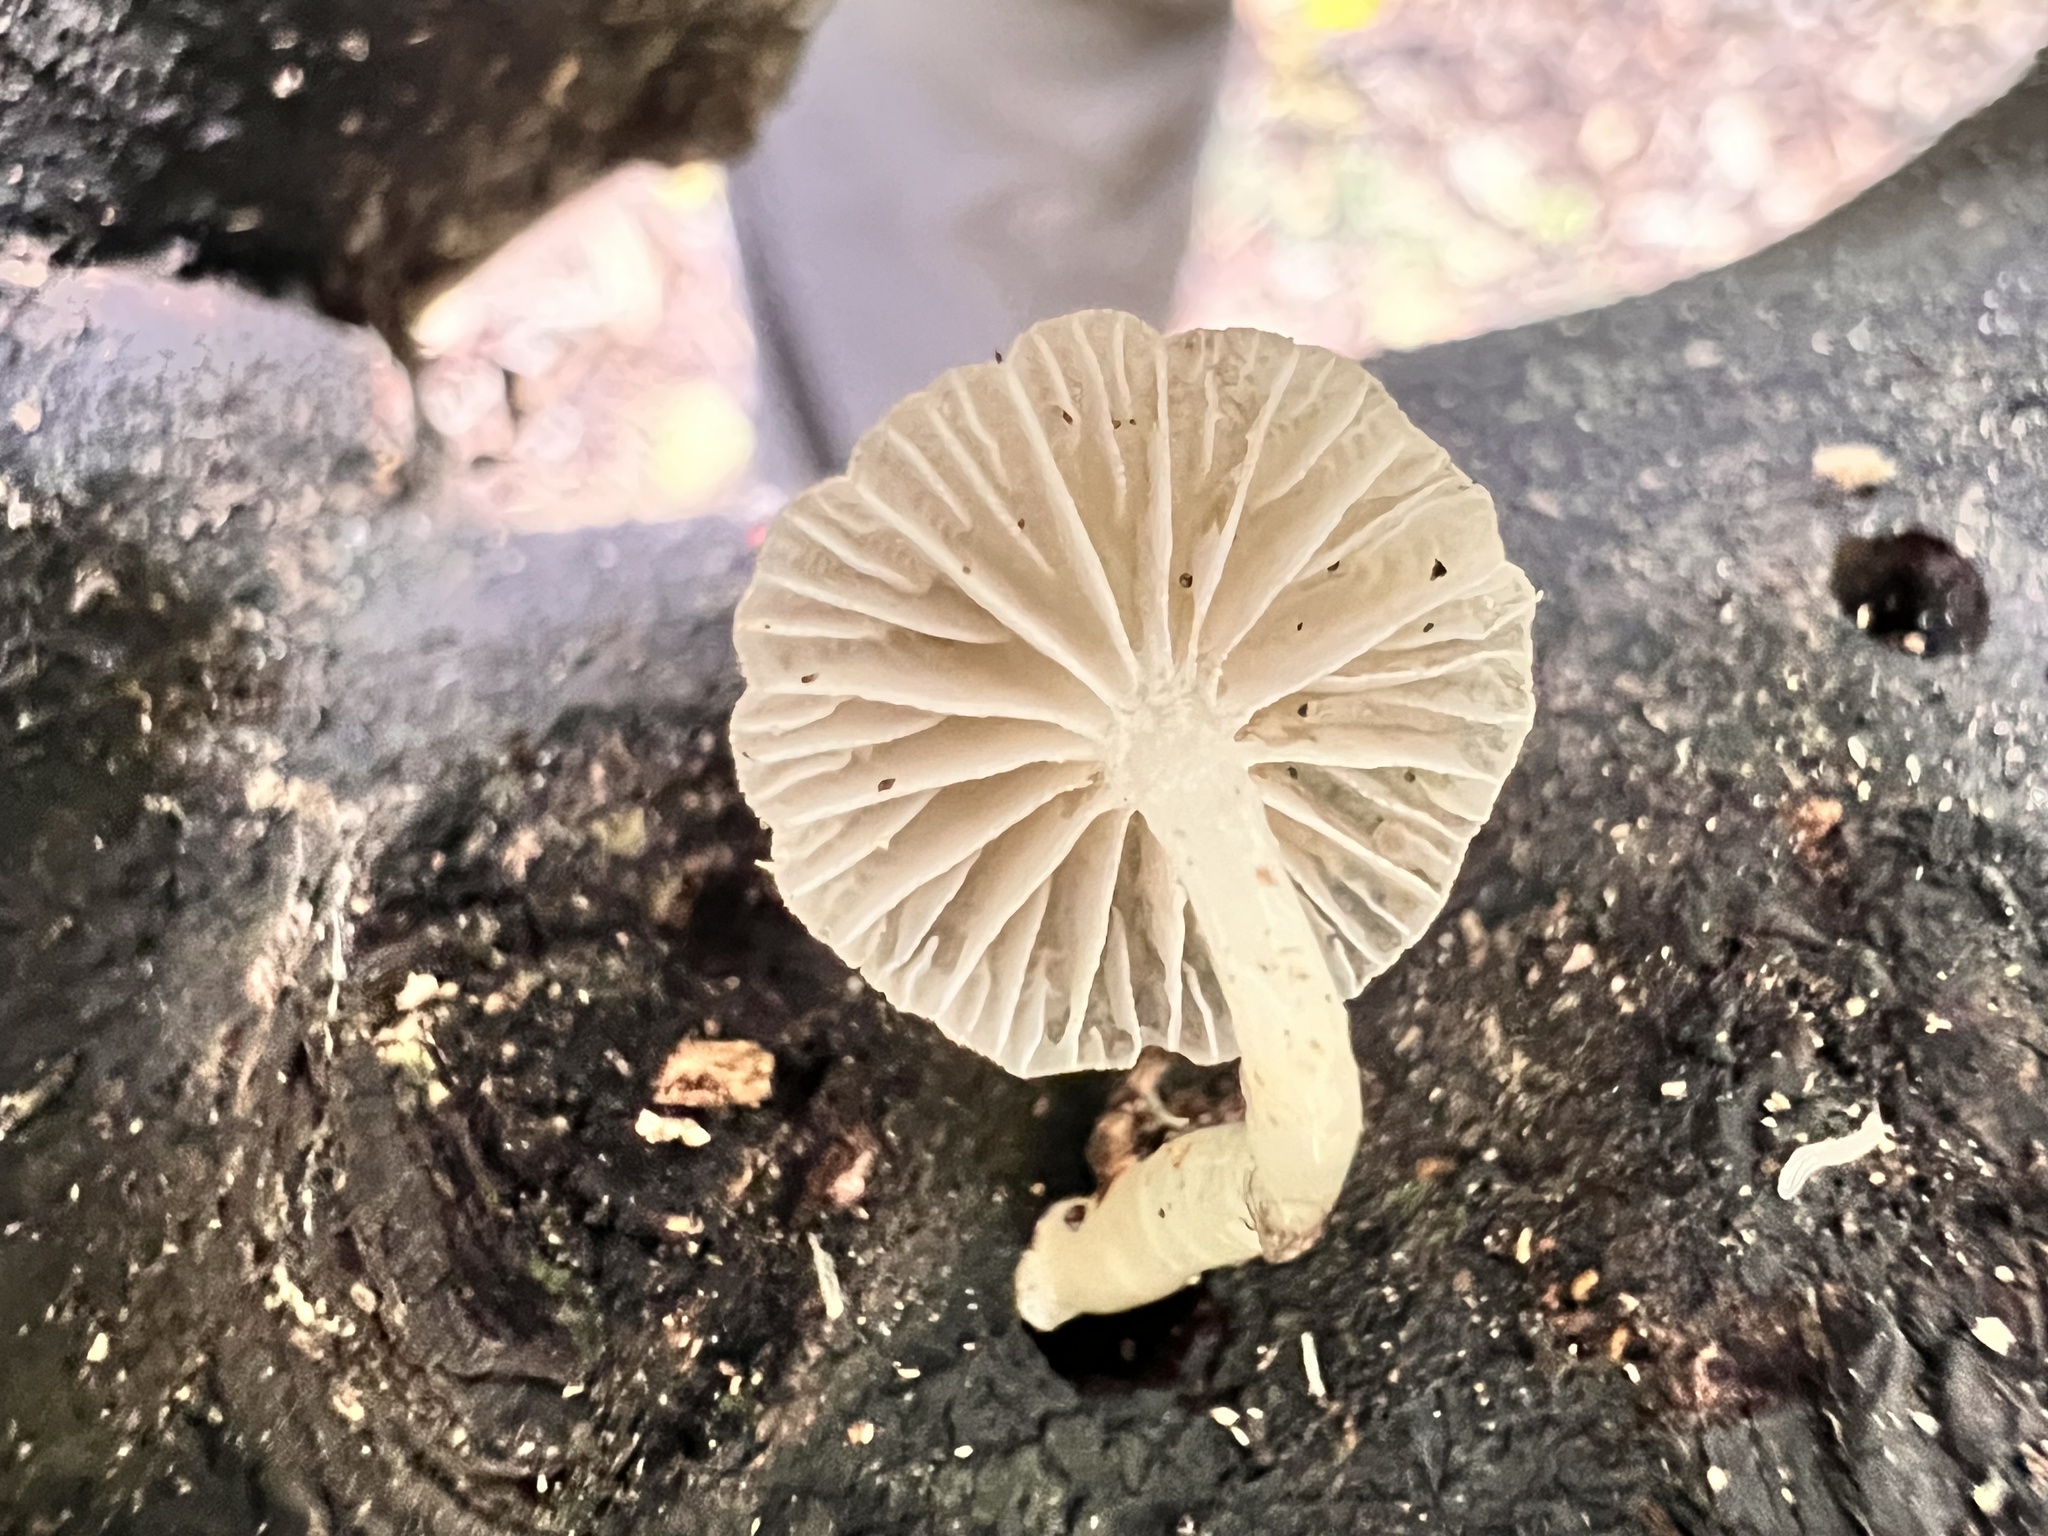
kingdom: Fungi
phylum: Basidiomycota
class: Agaricomycetes
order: Agaricales
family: Mycenaceae
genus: Roridomyces
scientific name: Roridomyces austrororidus
